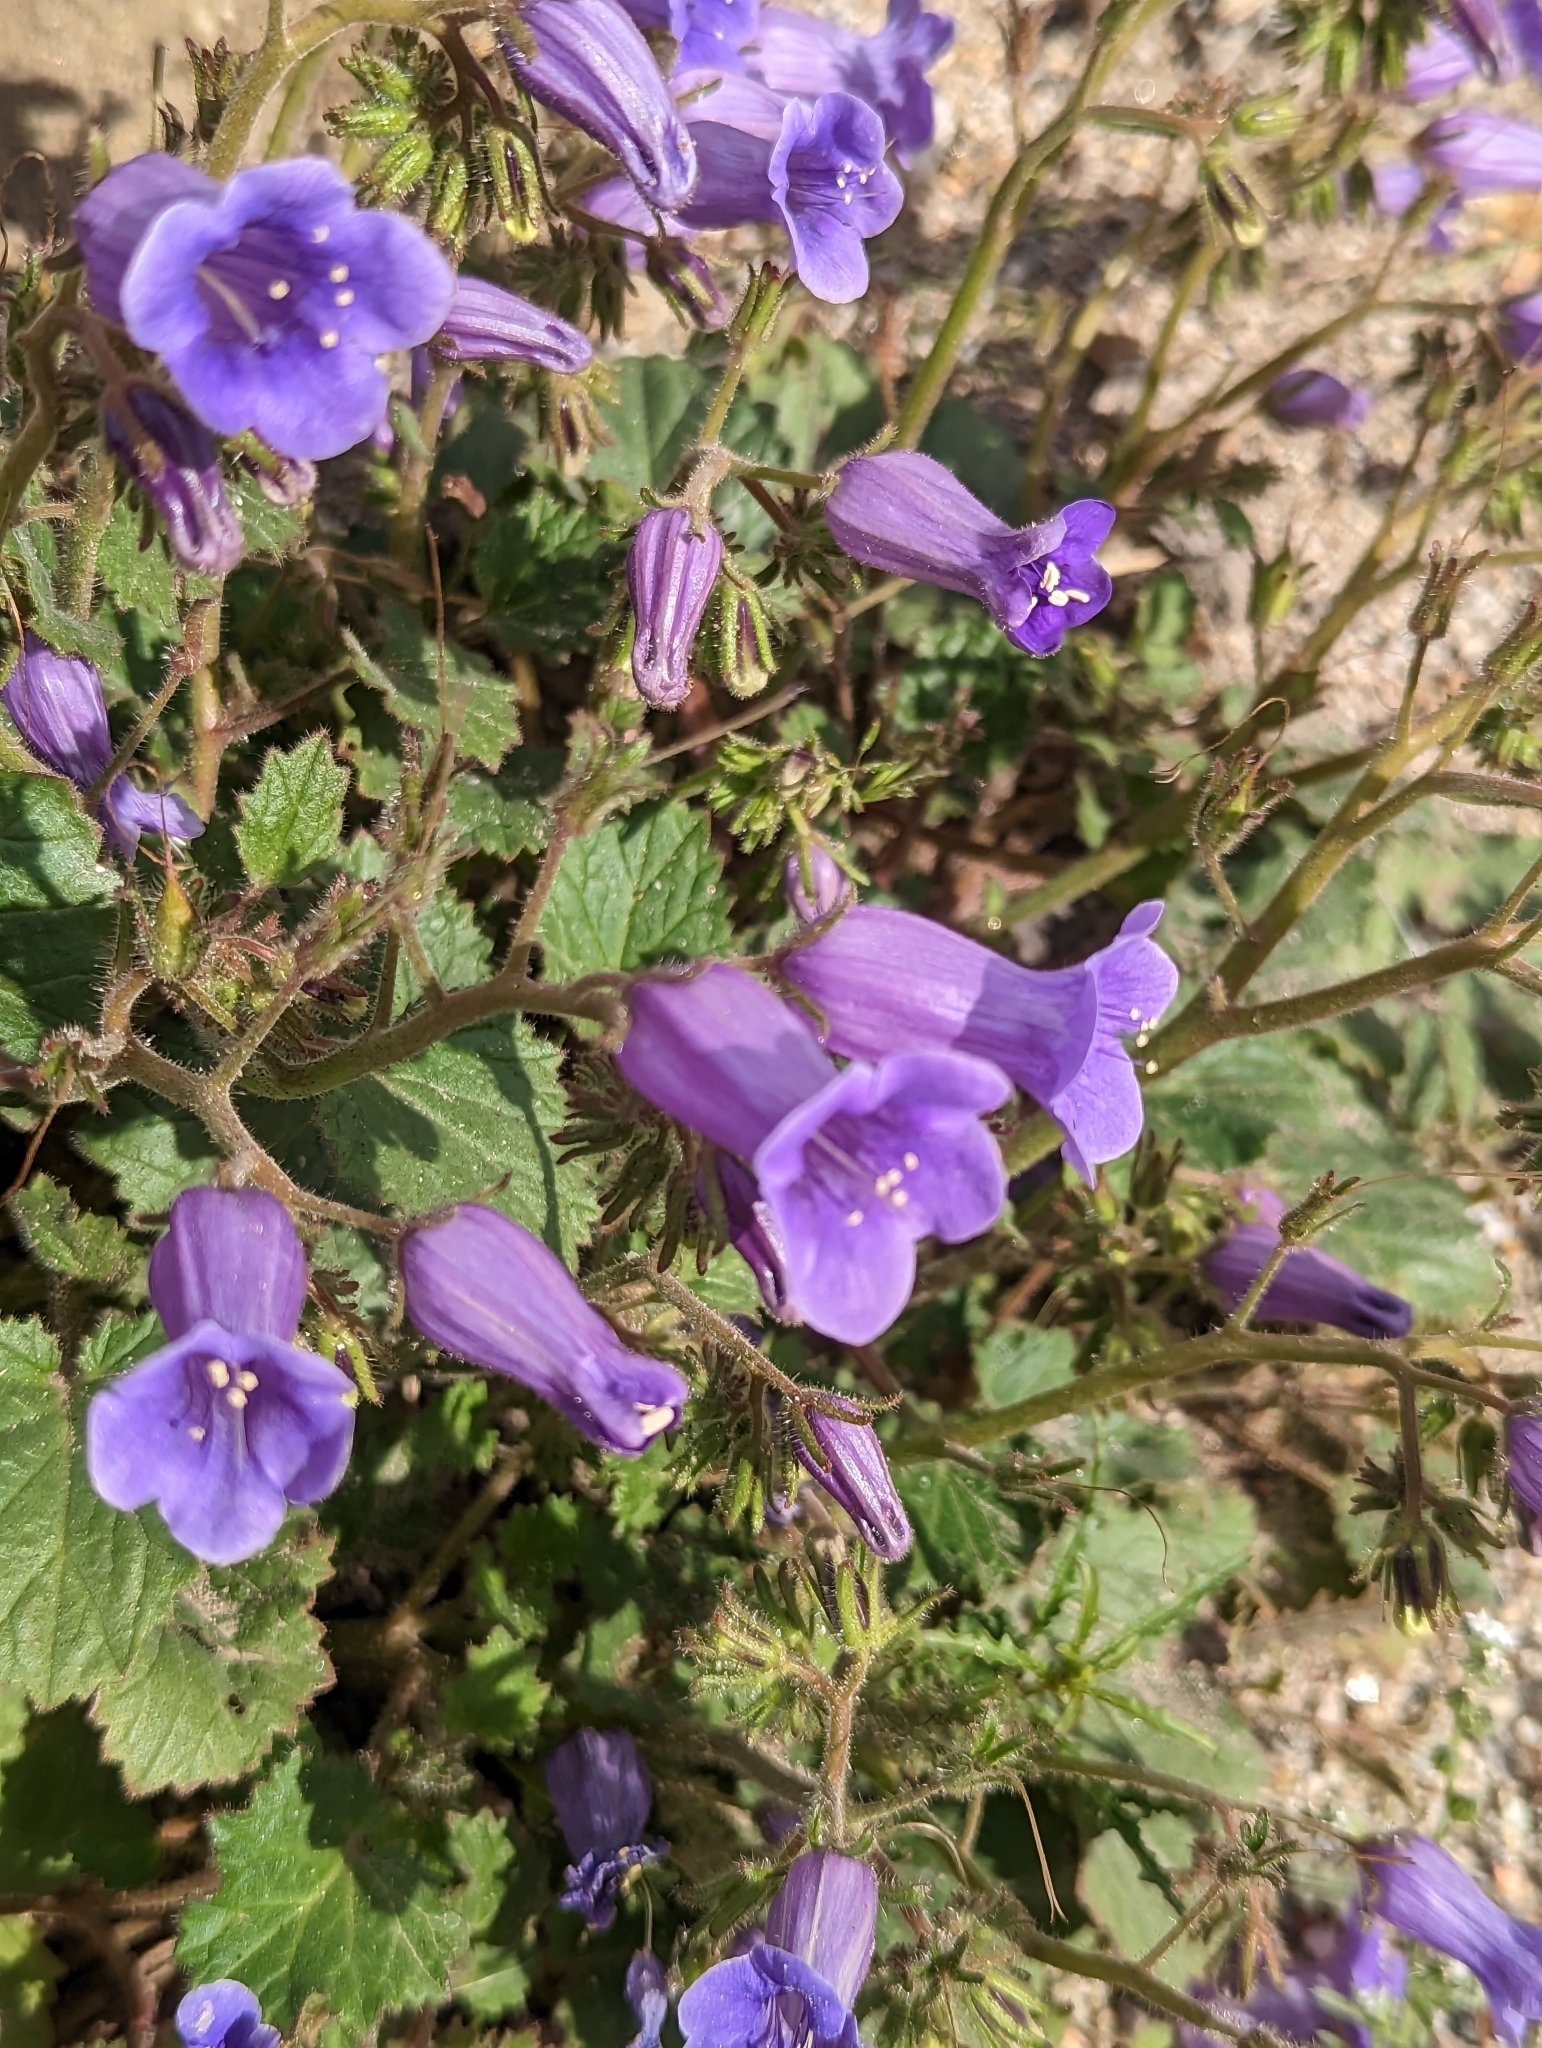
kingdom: Plantae
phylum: Tracheophyta
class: Magnoliopsida
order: Boraginales
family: Hydrophyllaceae
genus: Phacelia
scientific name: Phacelia minor
